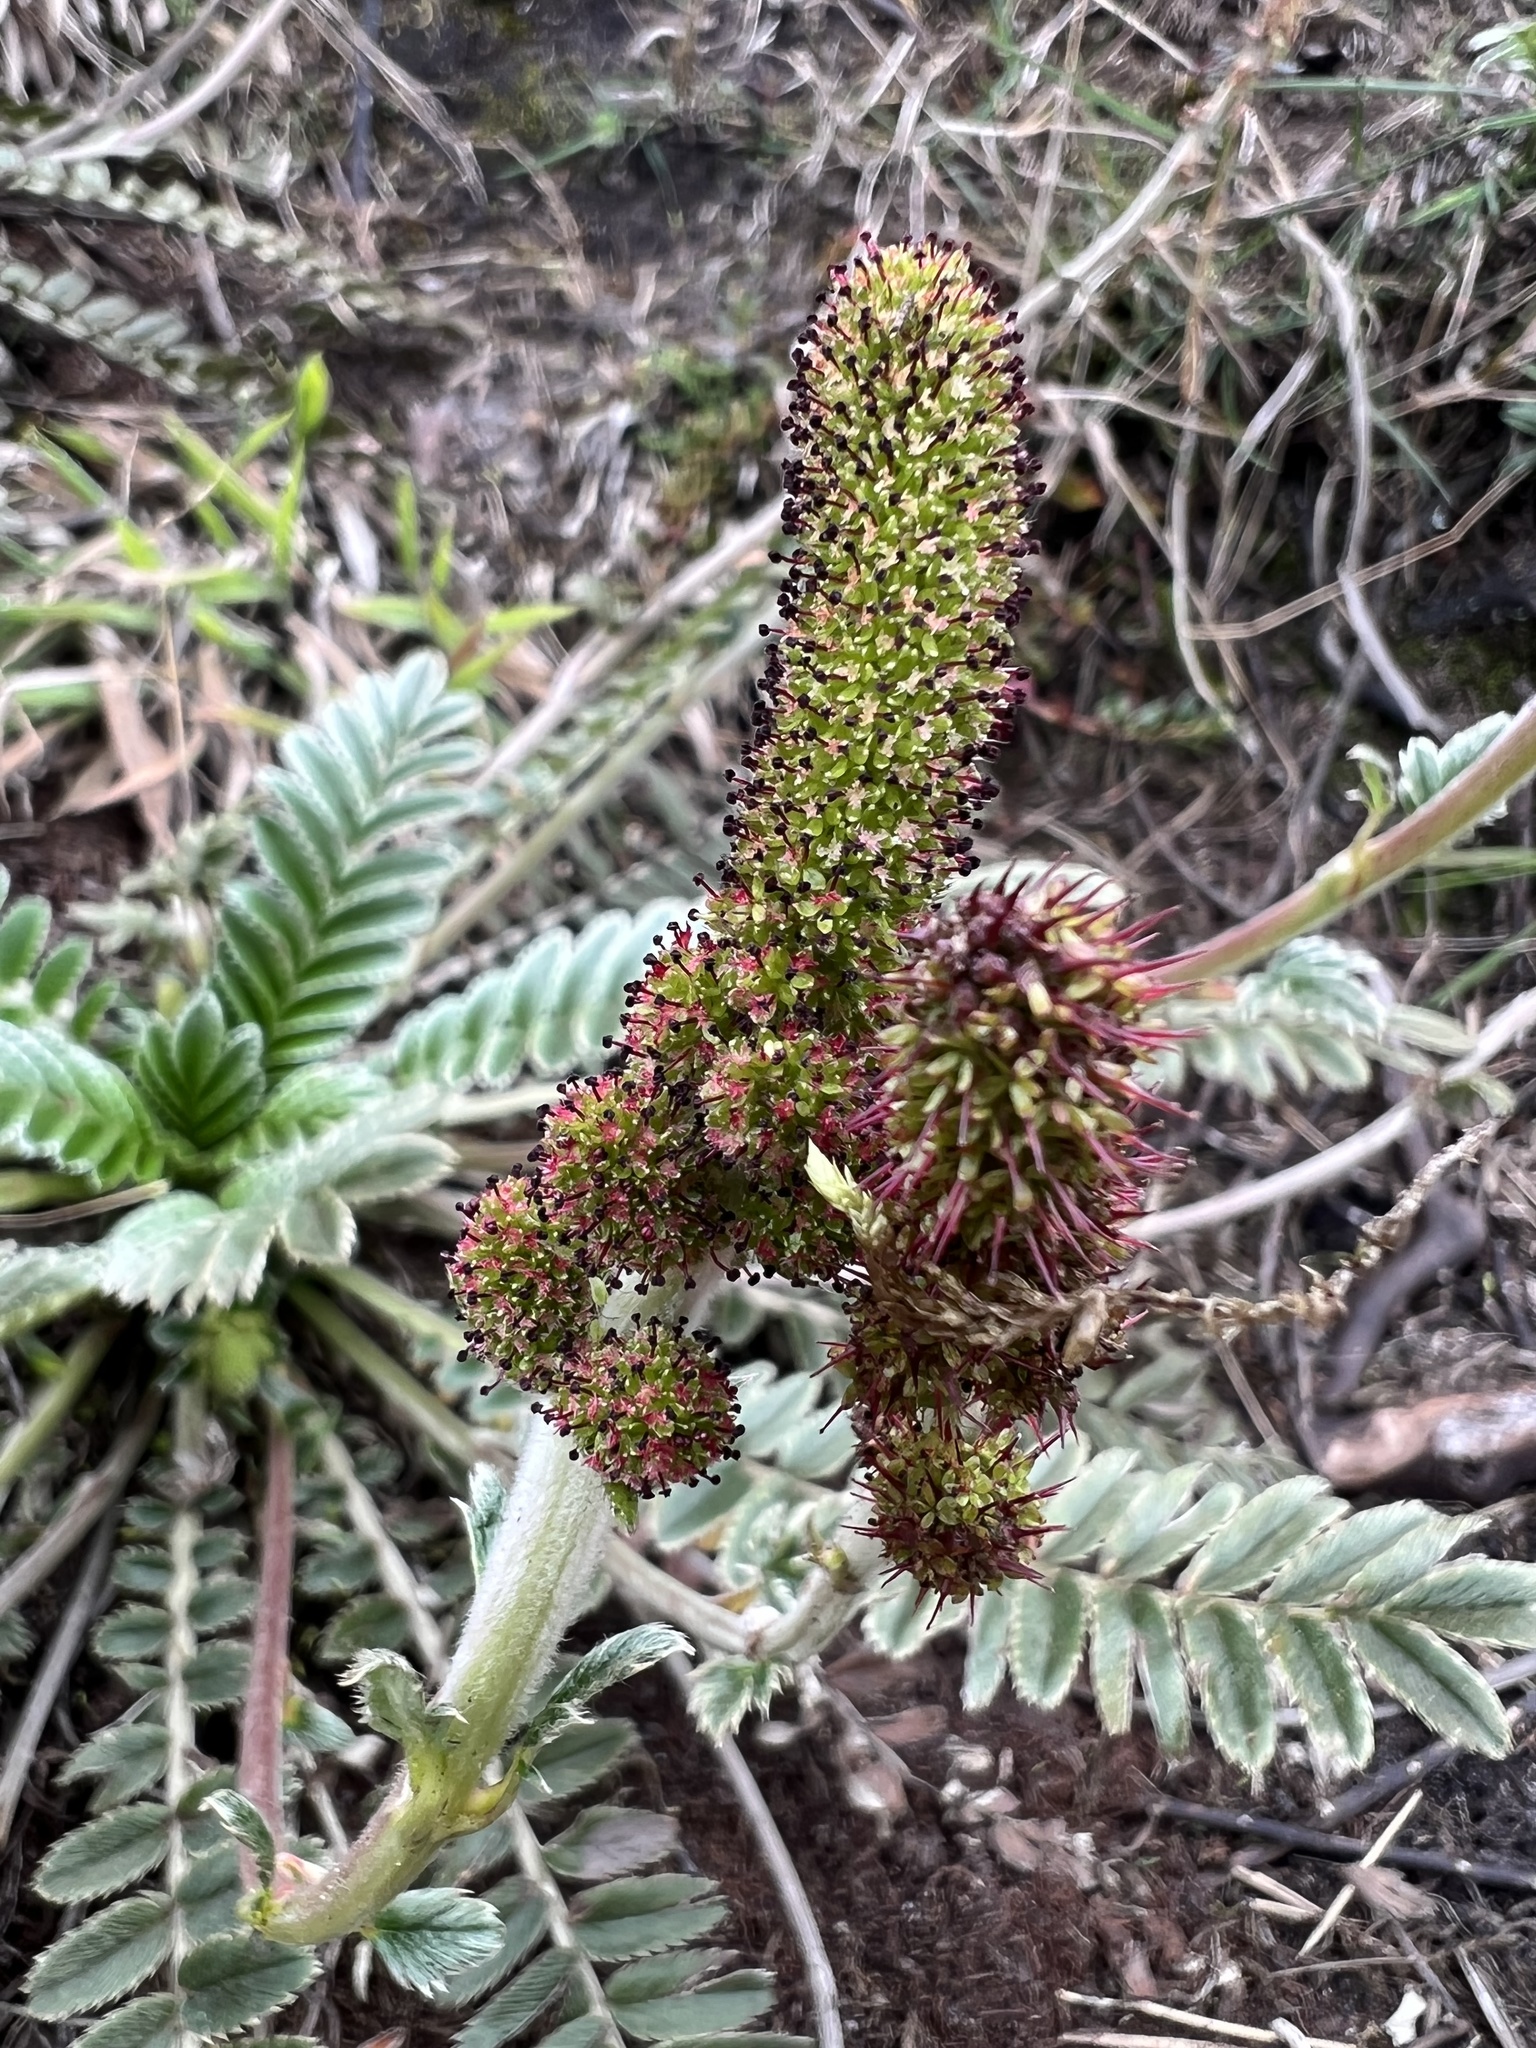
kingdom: Plantae
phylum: Tracheophyta
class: Magnoliopsida
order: Rosales
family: Rosaceae
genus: Acaena
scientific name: Acaena cylindristachya
